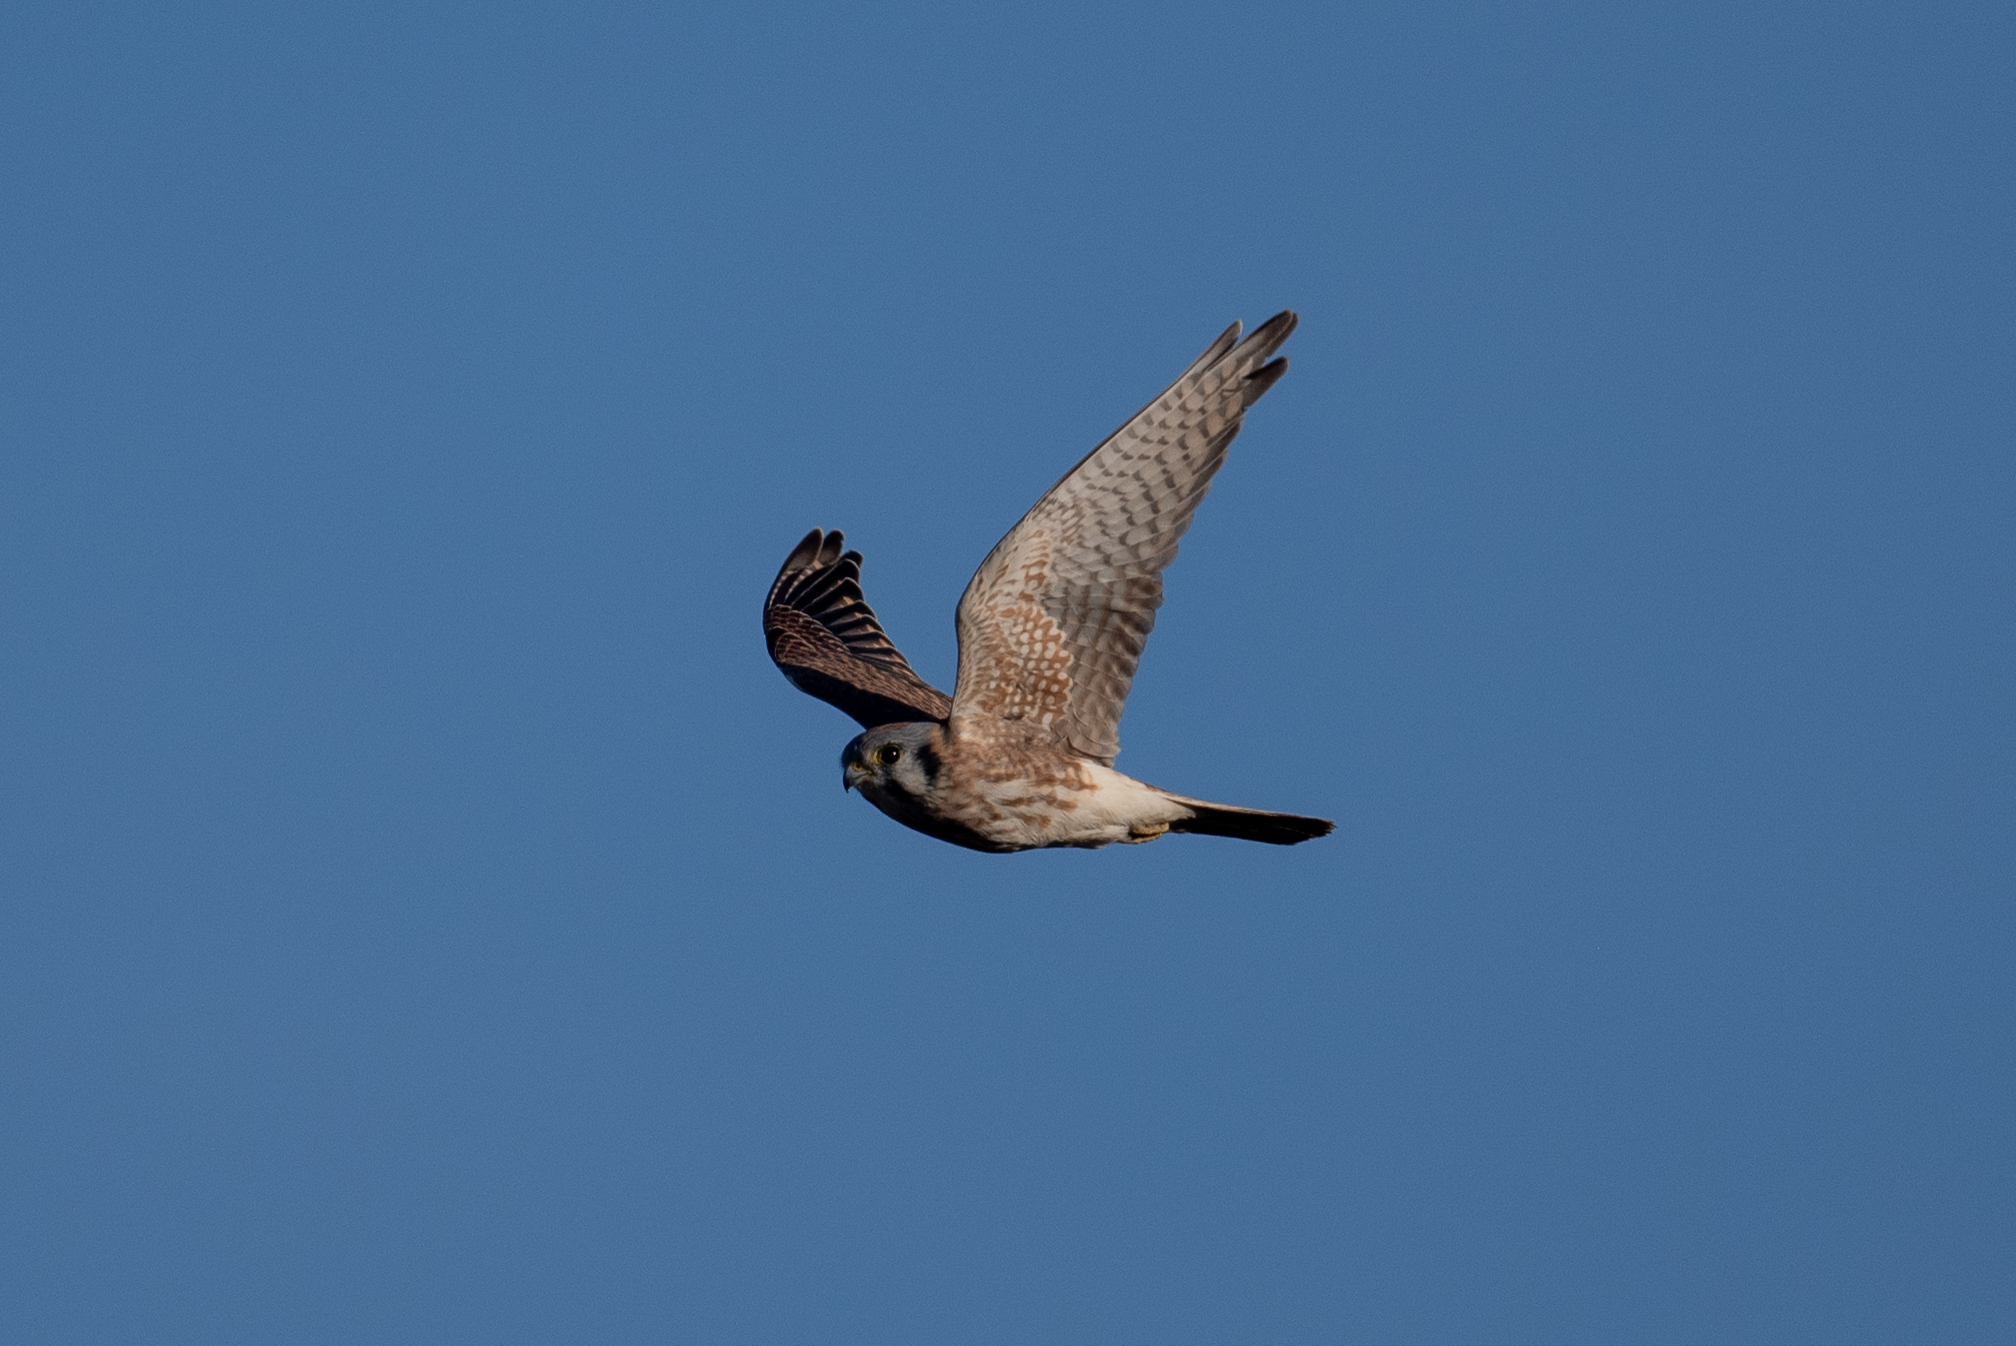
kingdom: Animalia
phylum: Chordata
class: Aves
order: Falconiformes
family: Falconidae
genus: Falco
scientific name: Falco sparverius
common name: American kestrel
